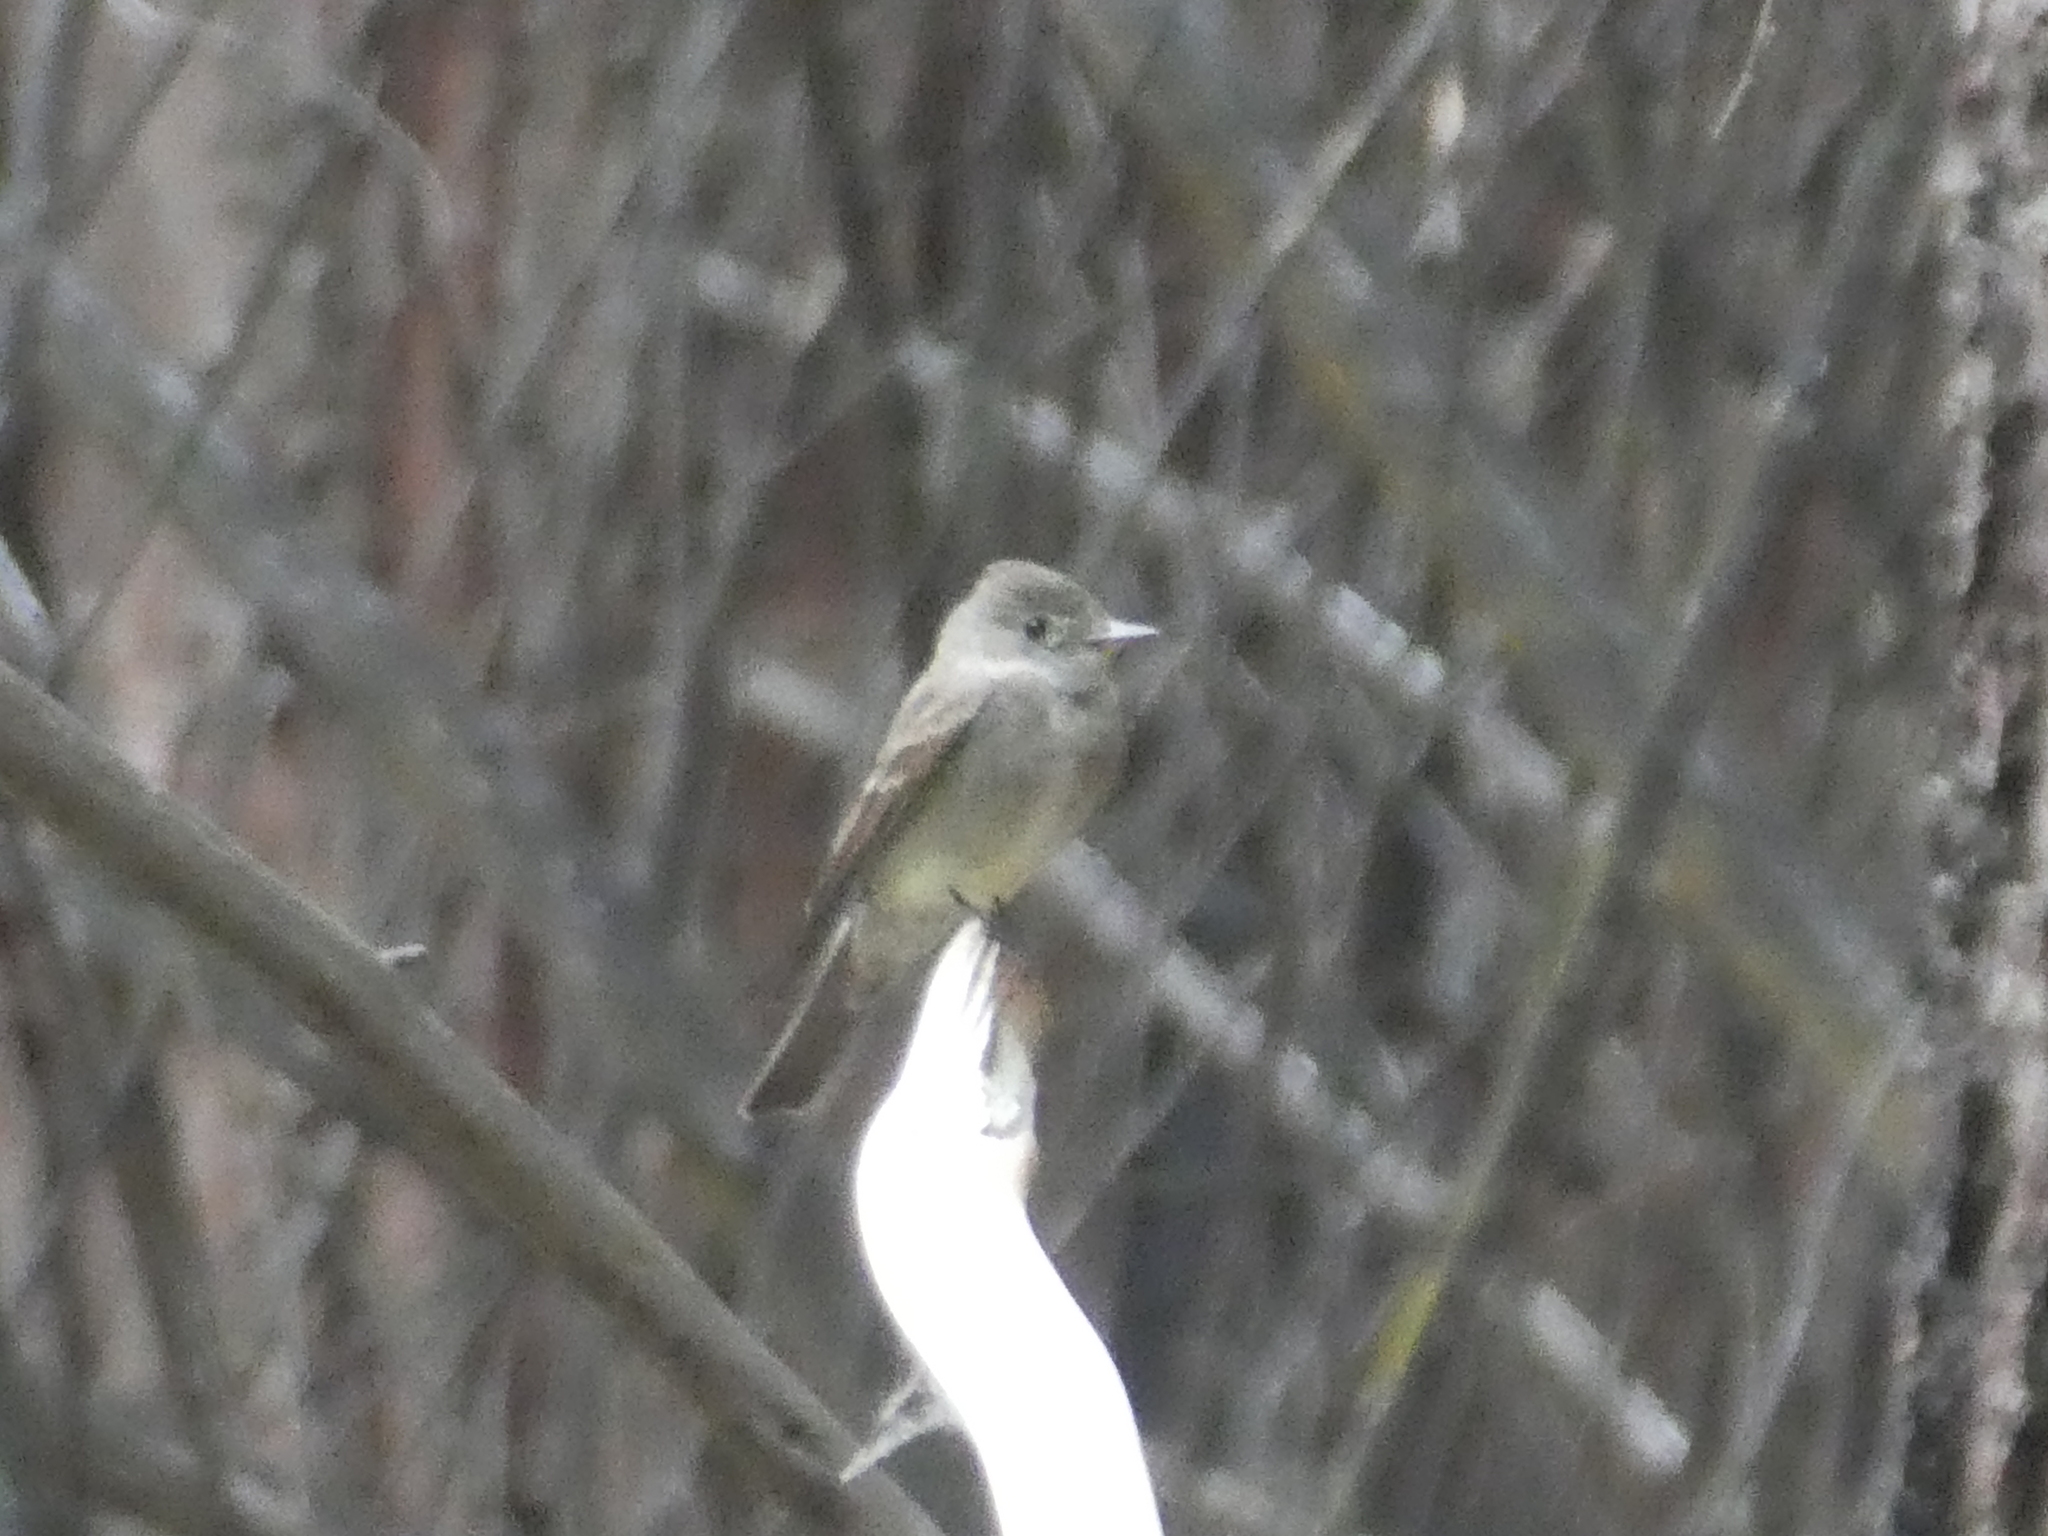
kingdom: Animalia
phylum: Chordata
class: Aves
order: Passeriformes
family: Tyrannidae
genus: Contopus
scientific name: Contopus sordidulus
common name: Western wood-pewee
